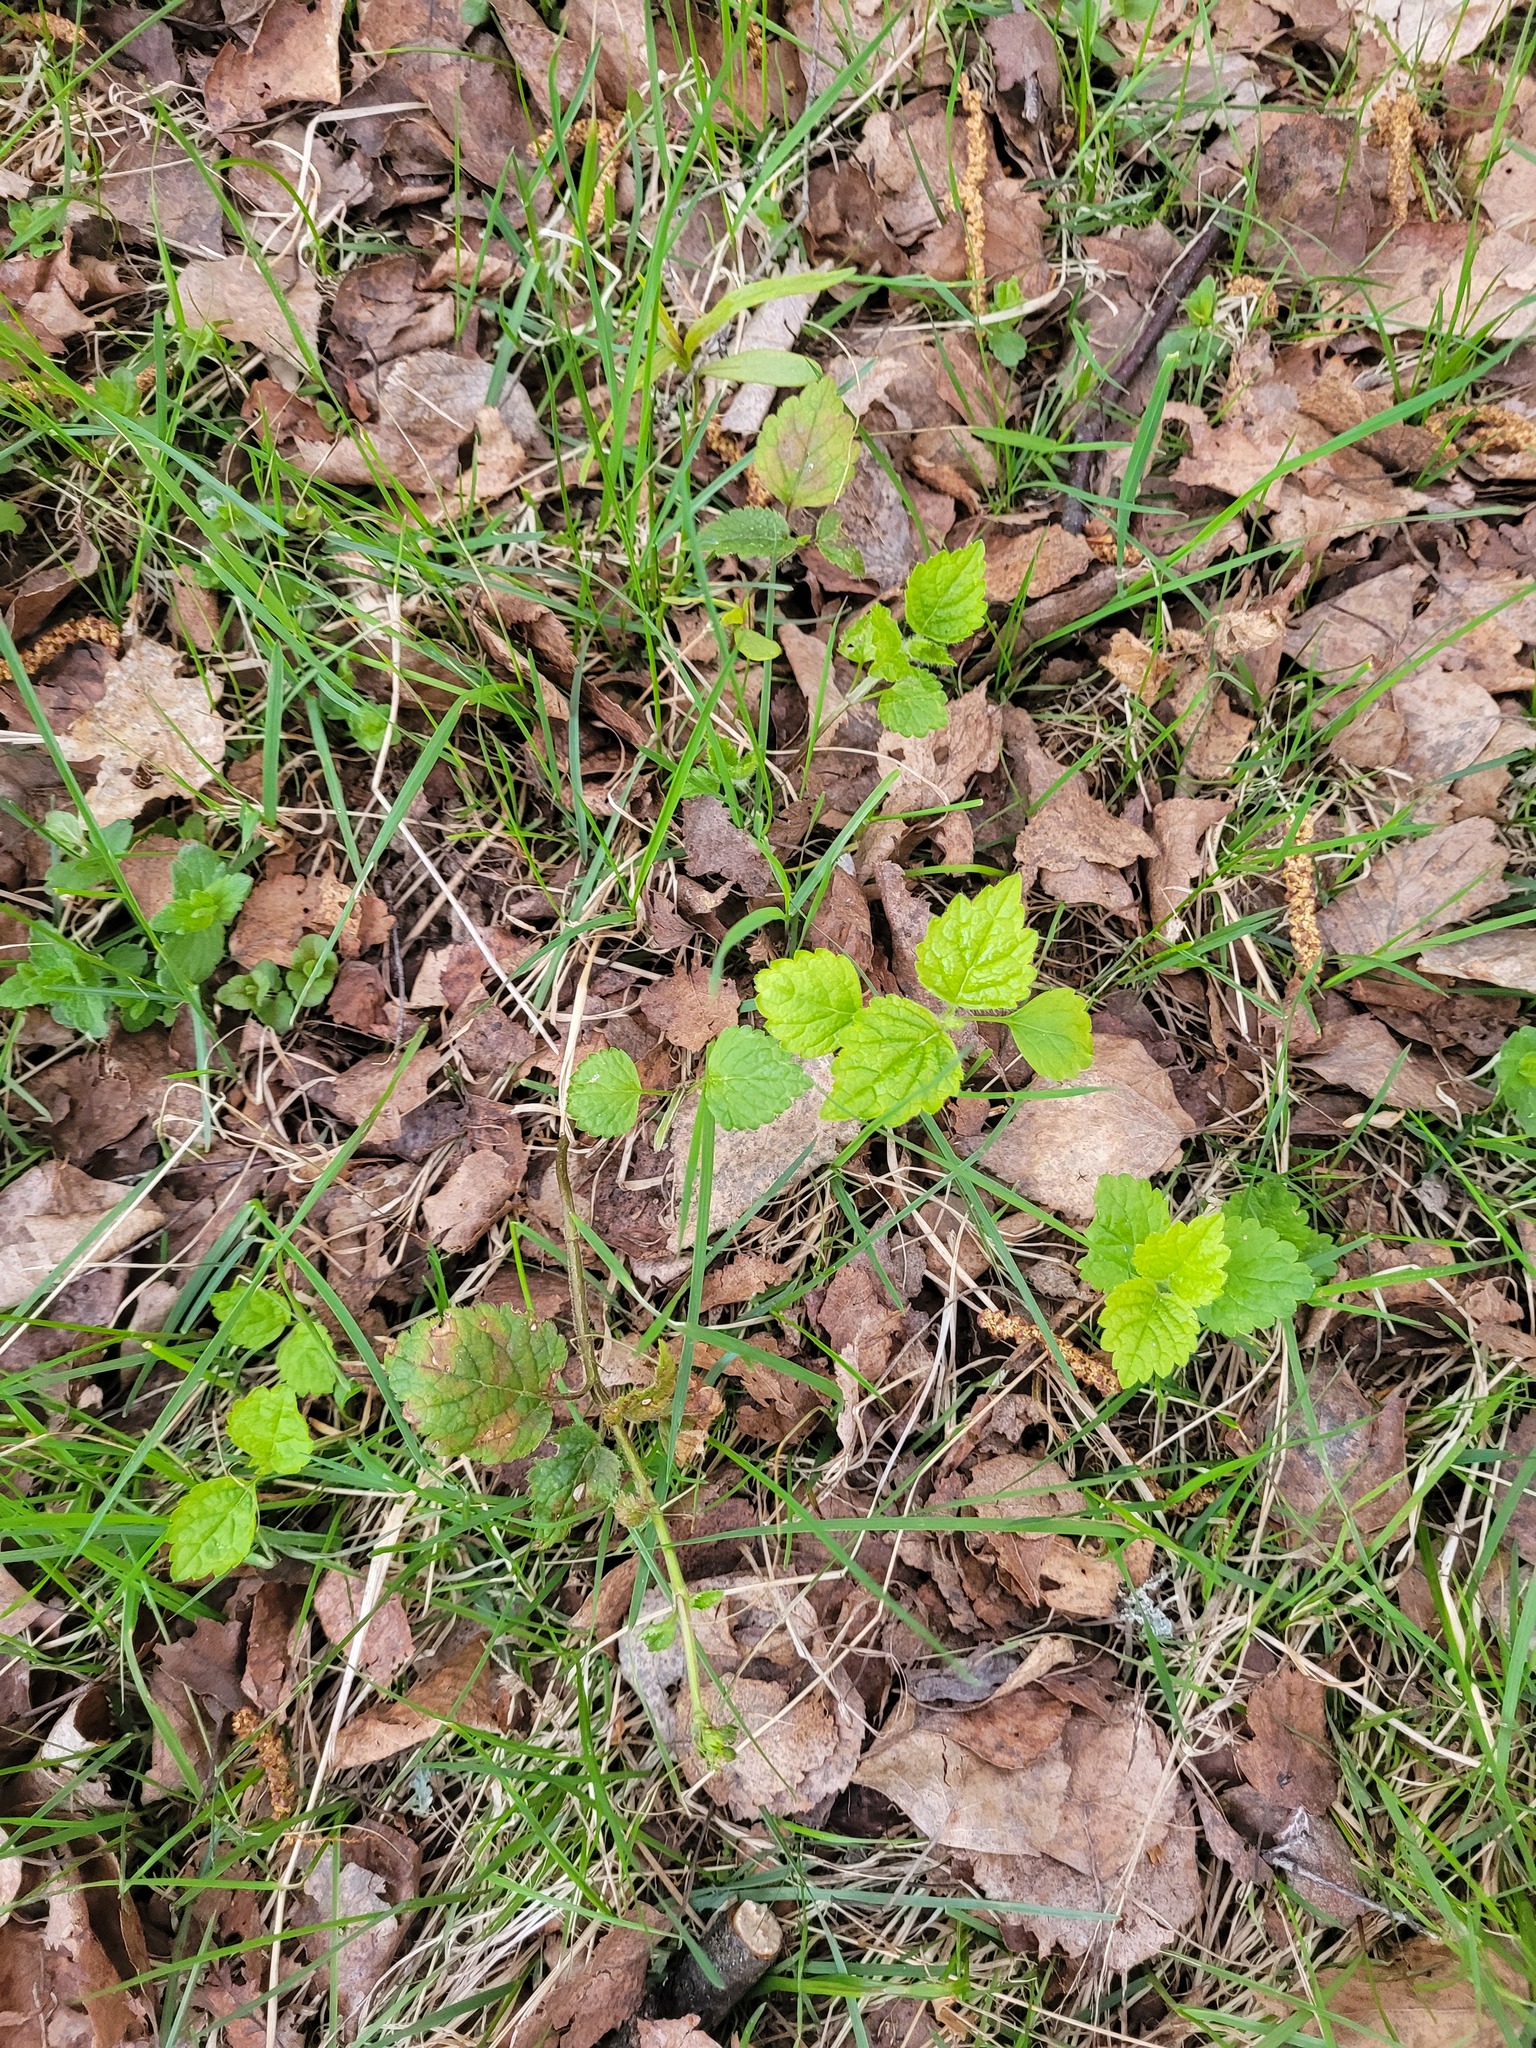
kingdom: Plantae
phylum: Tracheophyta
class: Magnoliopsida
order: Lamiales
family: Lamiaceae
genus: Lamium
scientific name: Lamium galeobdolon
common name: Yellow archangel
